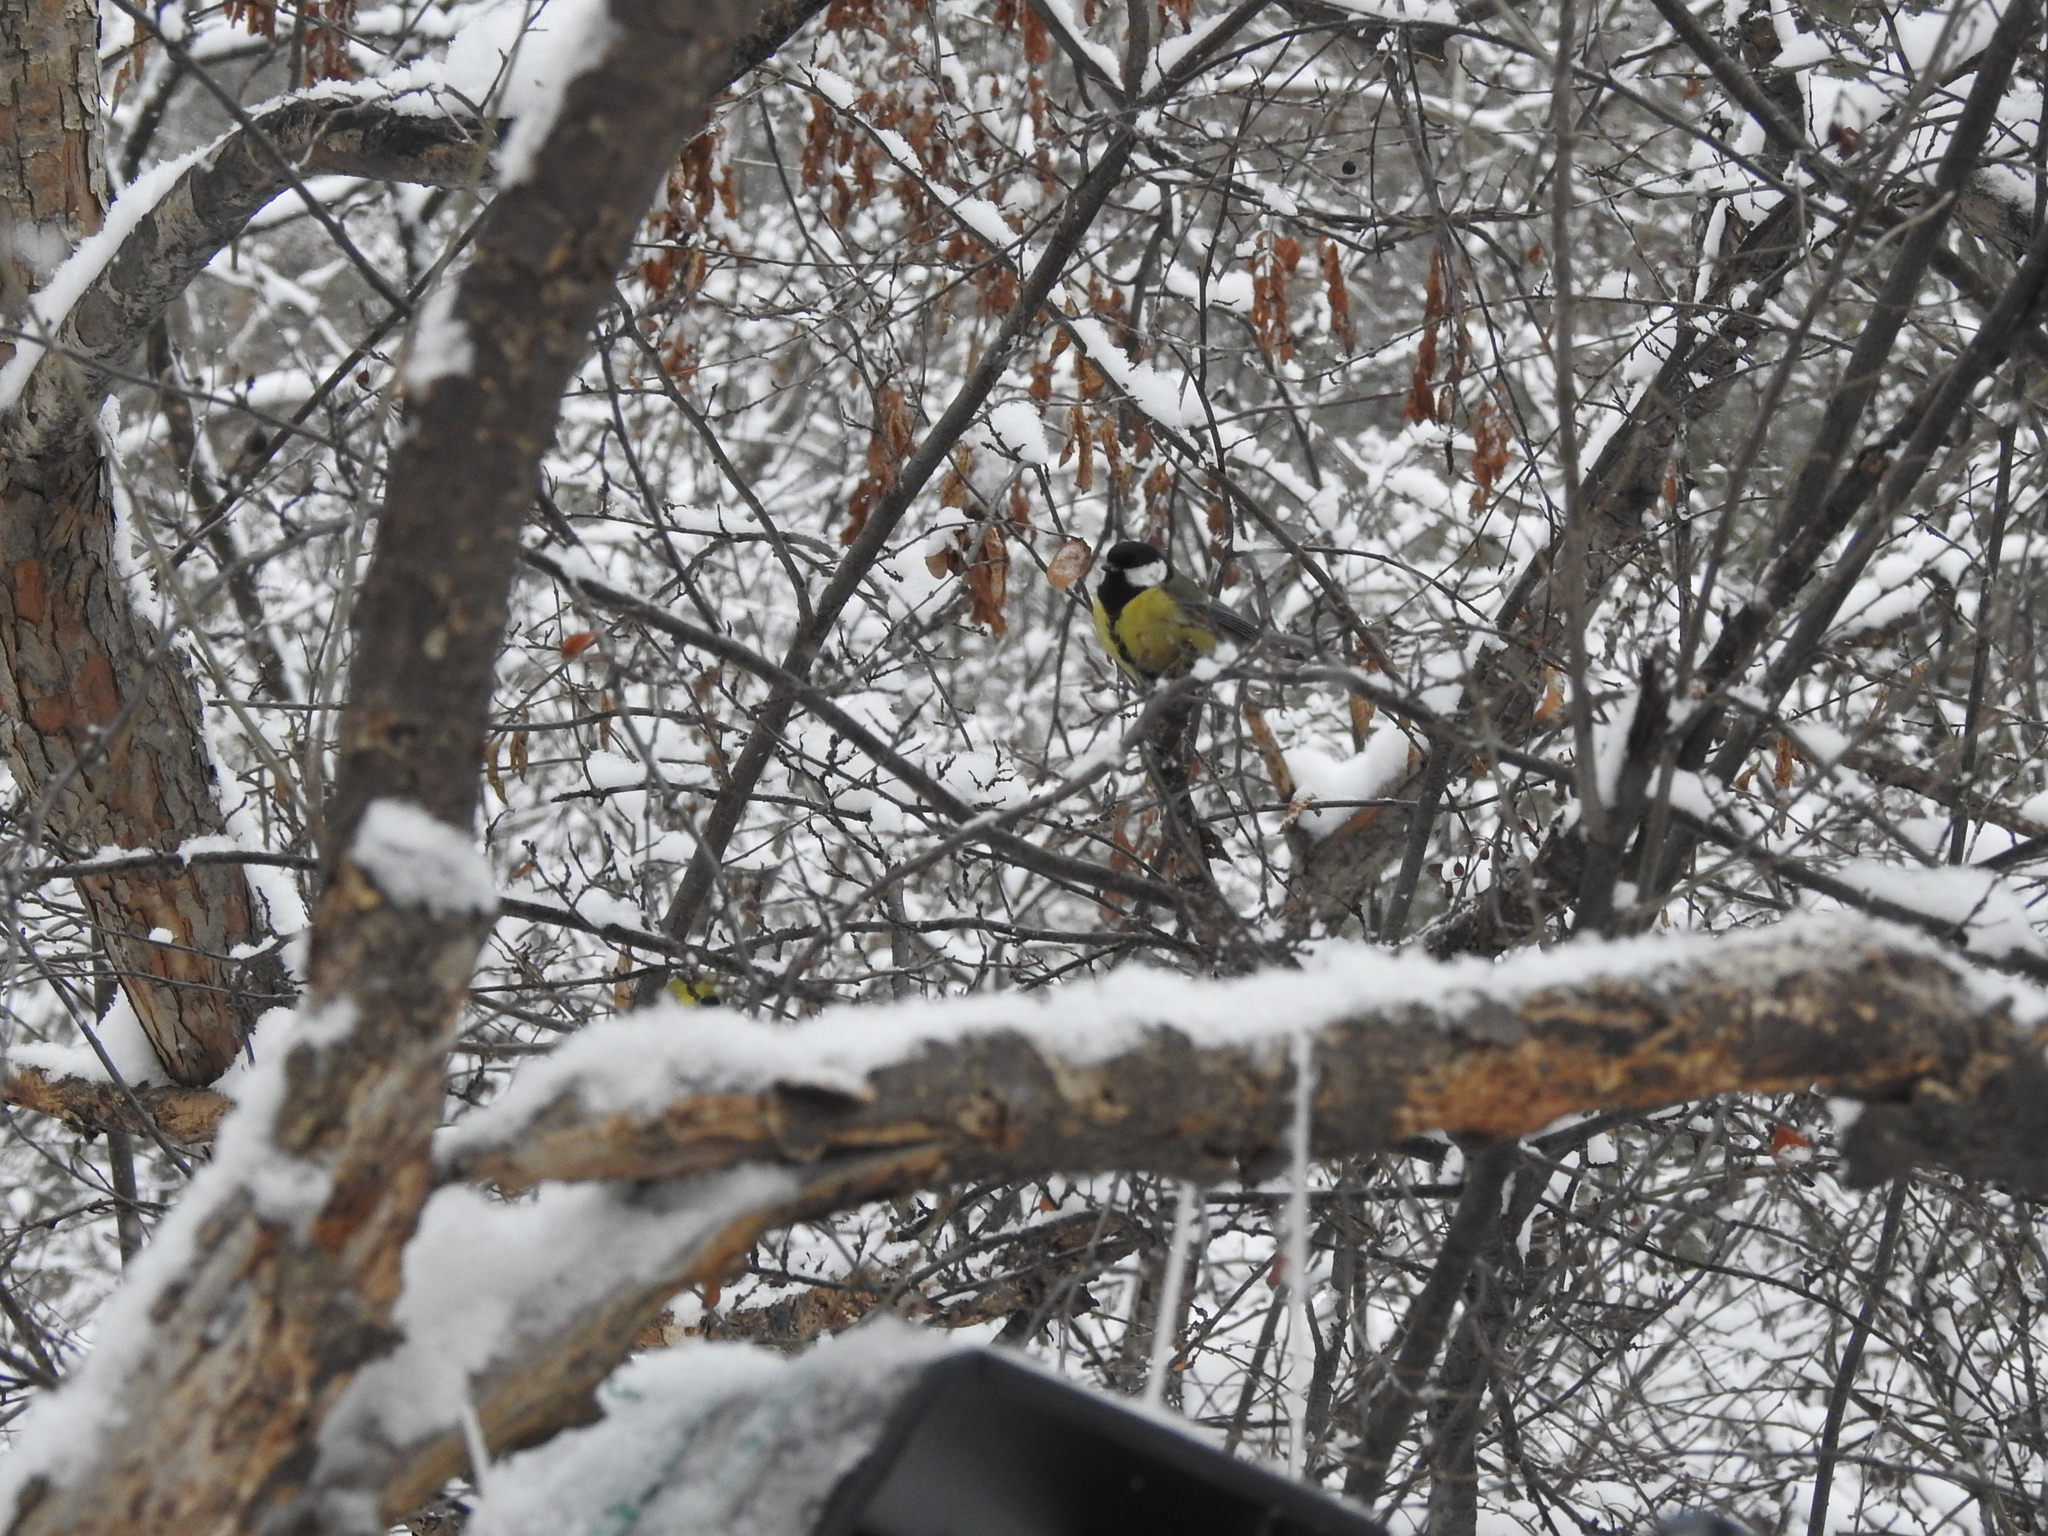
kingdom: Animalia
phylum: Chordata
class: Aves
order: Passeriformes
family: Paridae
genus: Parus
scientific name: Parus major
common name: Great tit
